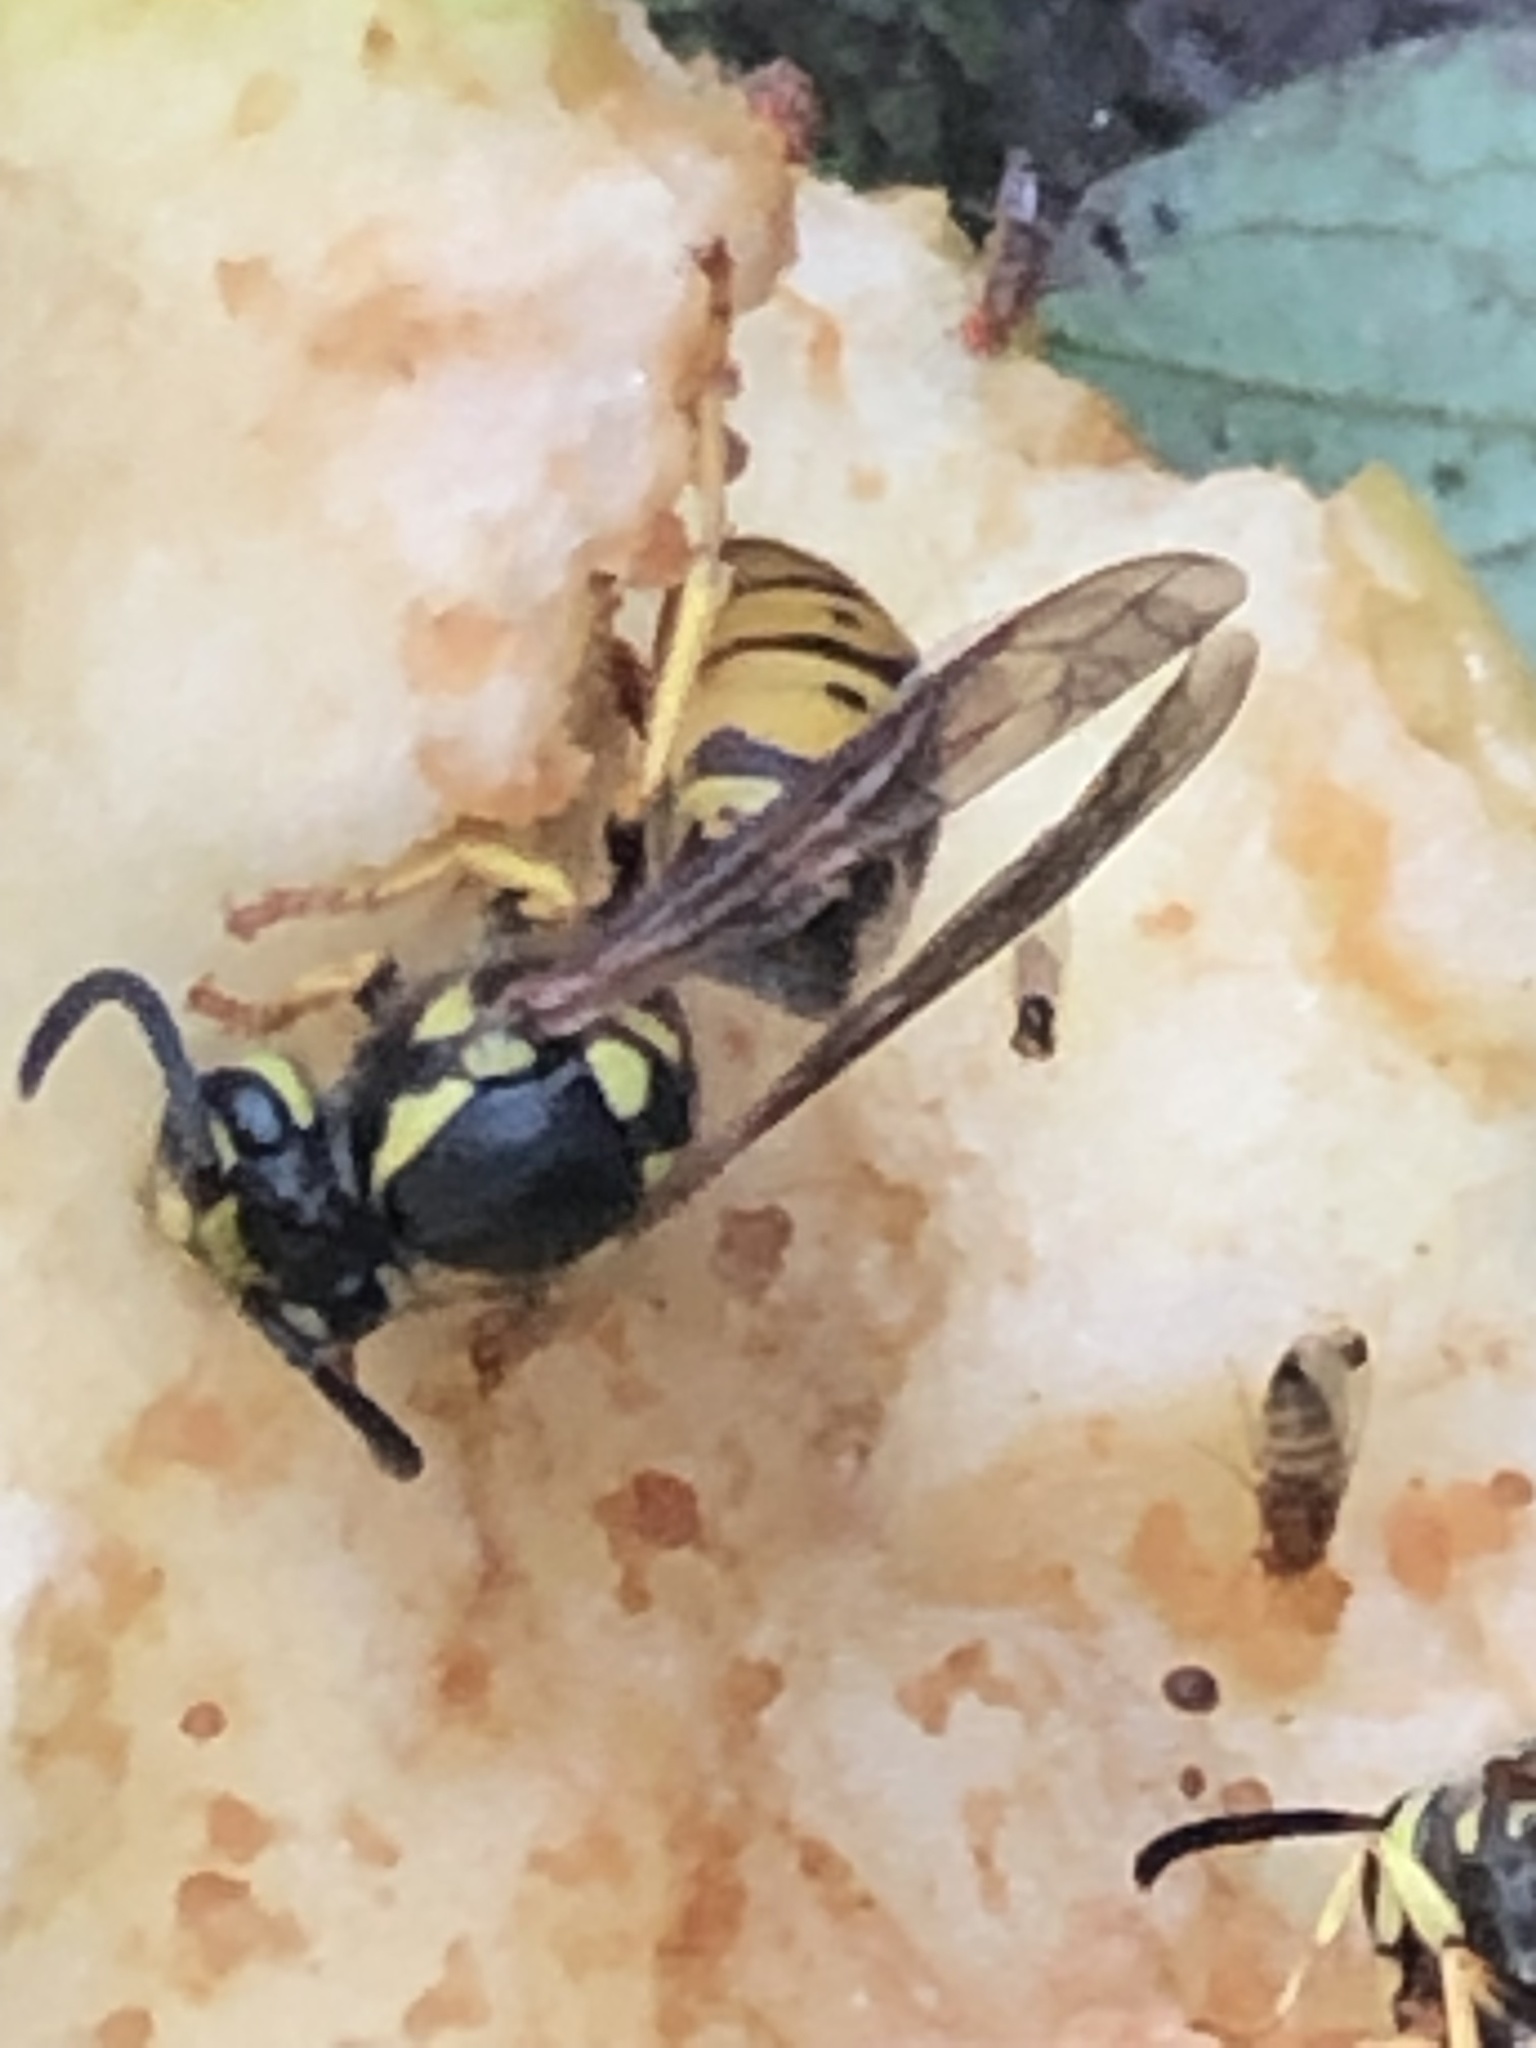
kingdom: Animalia
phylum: Arthropoda
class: Insecta
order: Hymenoptera
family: Vespidae
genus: Vespula
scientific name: Vespula germanica
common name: German wasp
